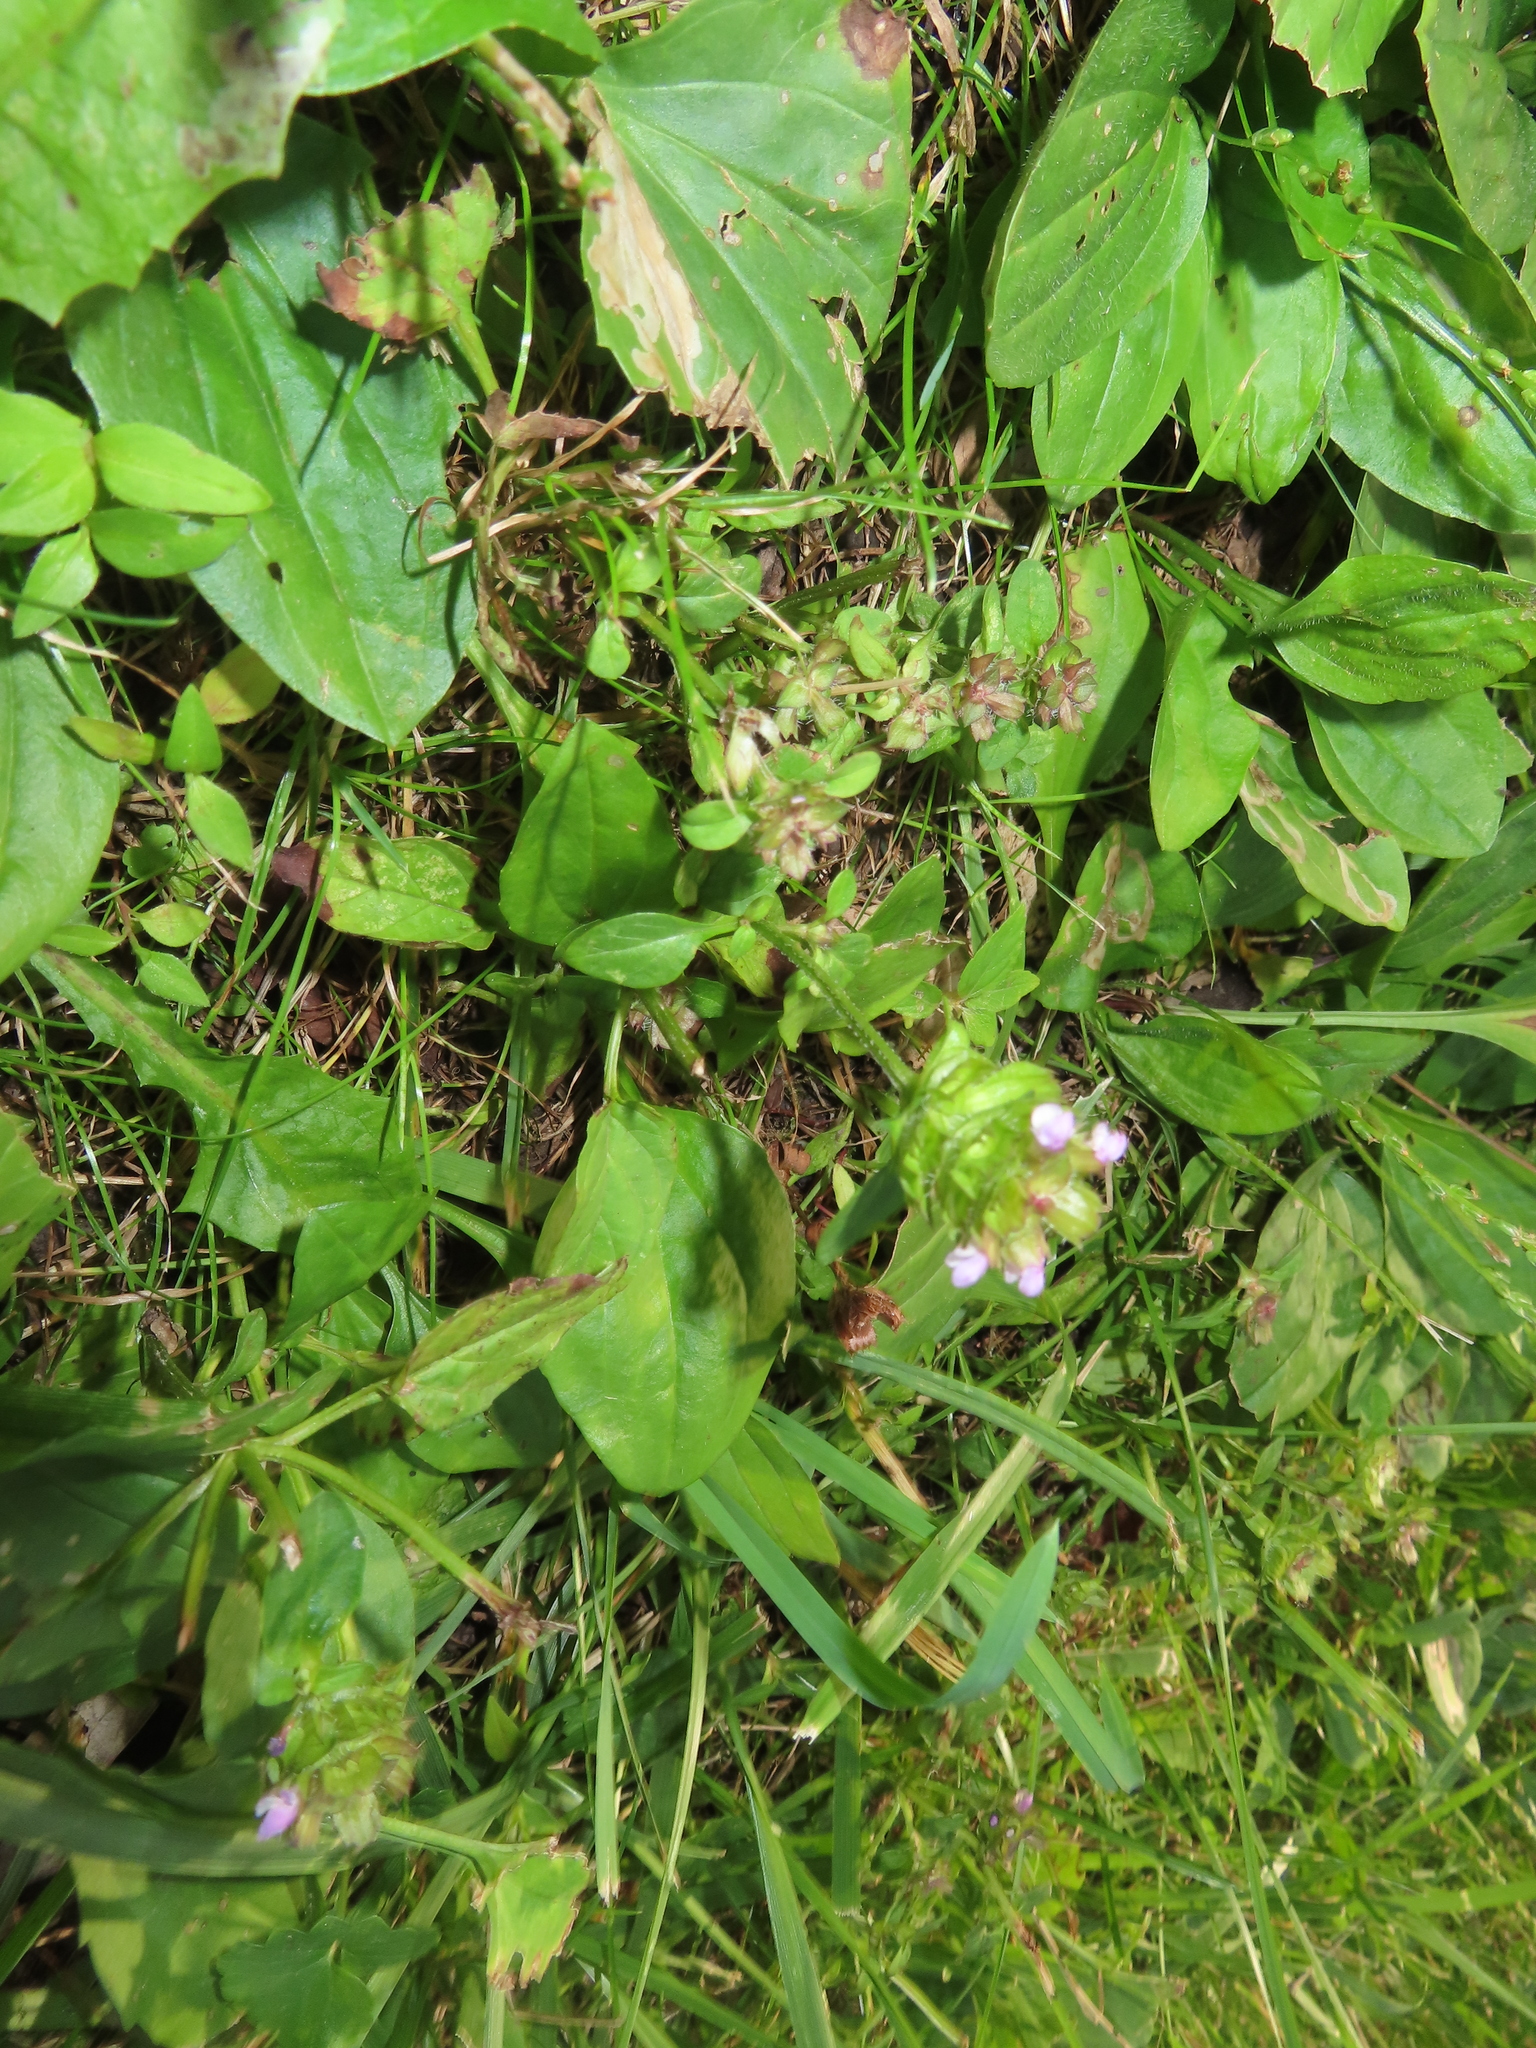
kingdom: Plantae
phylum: Tracheophyta
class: Magnoliopsida
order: Lamiales
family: Lamiaceae
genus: Prunella
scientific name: Prunella vulgaris
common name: Heal-all
